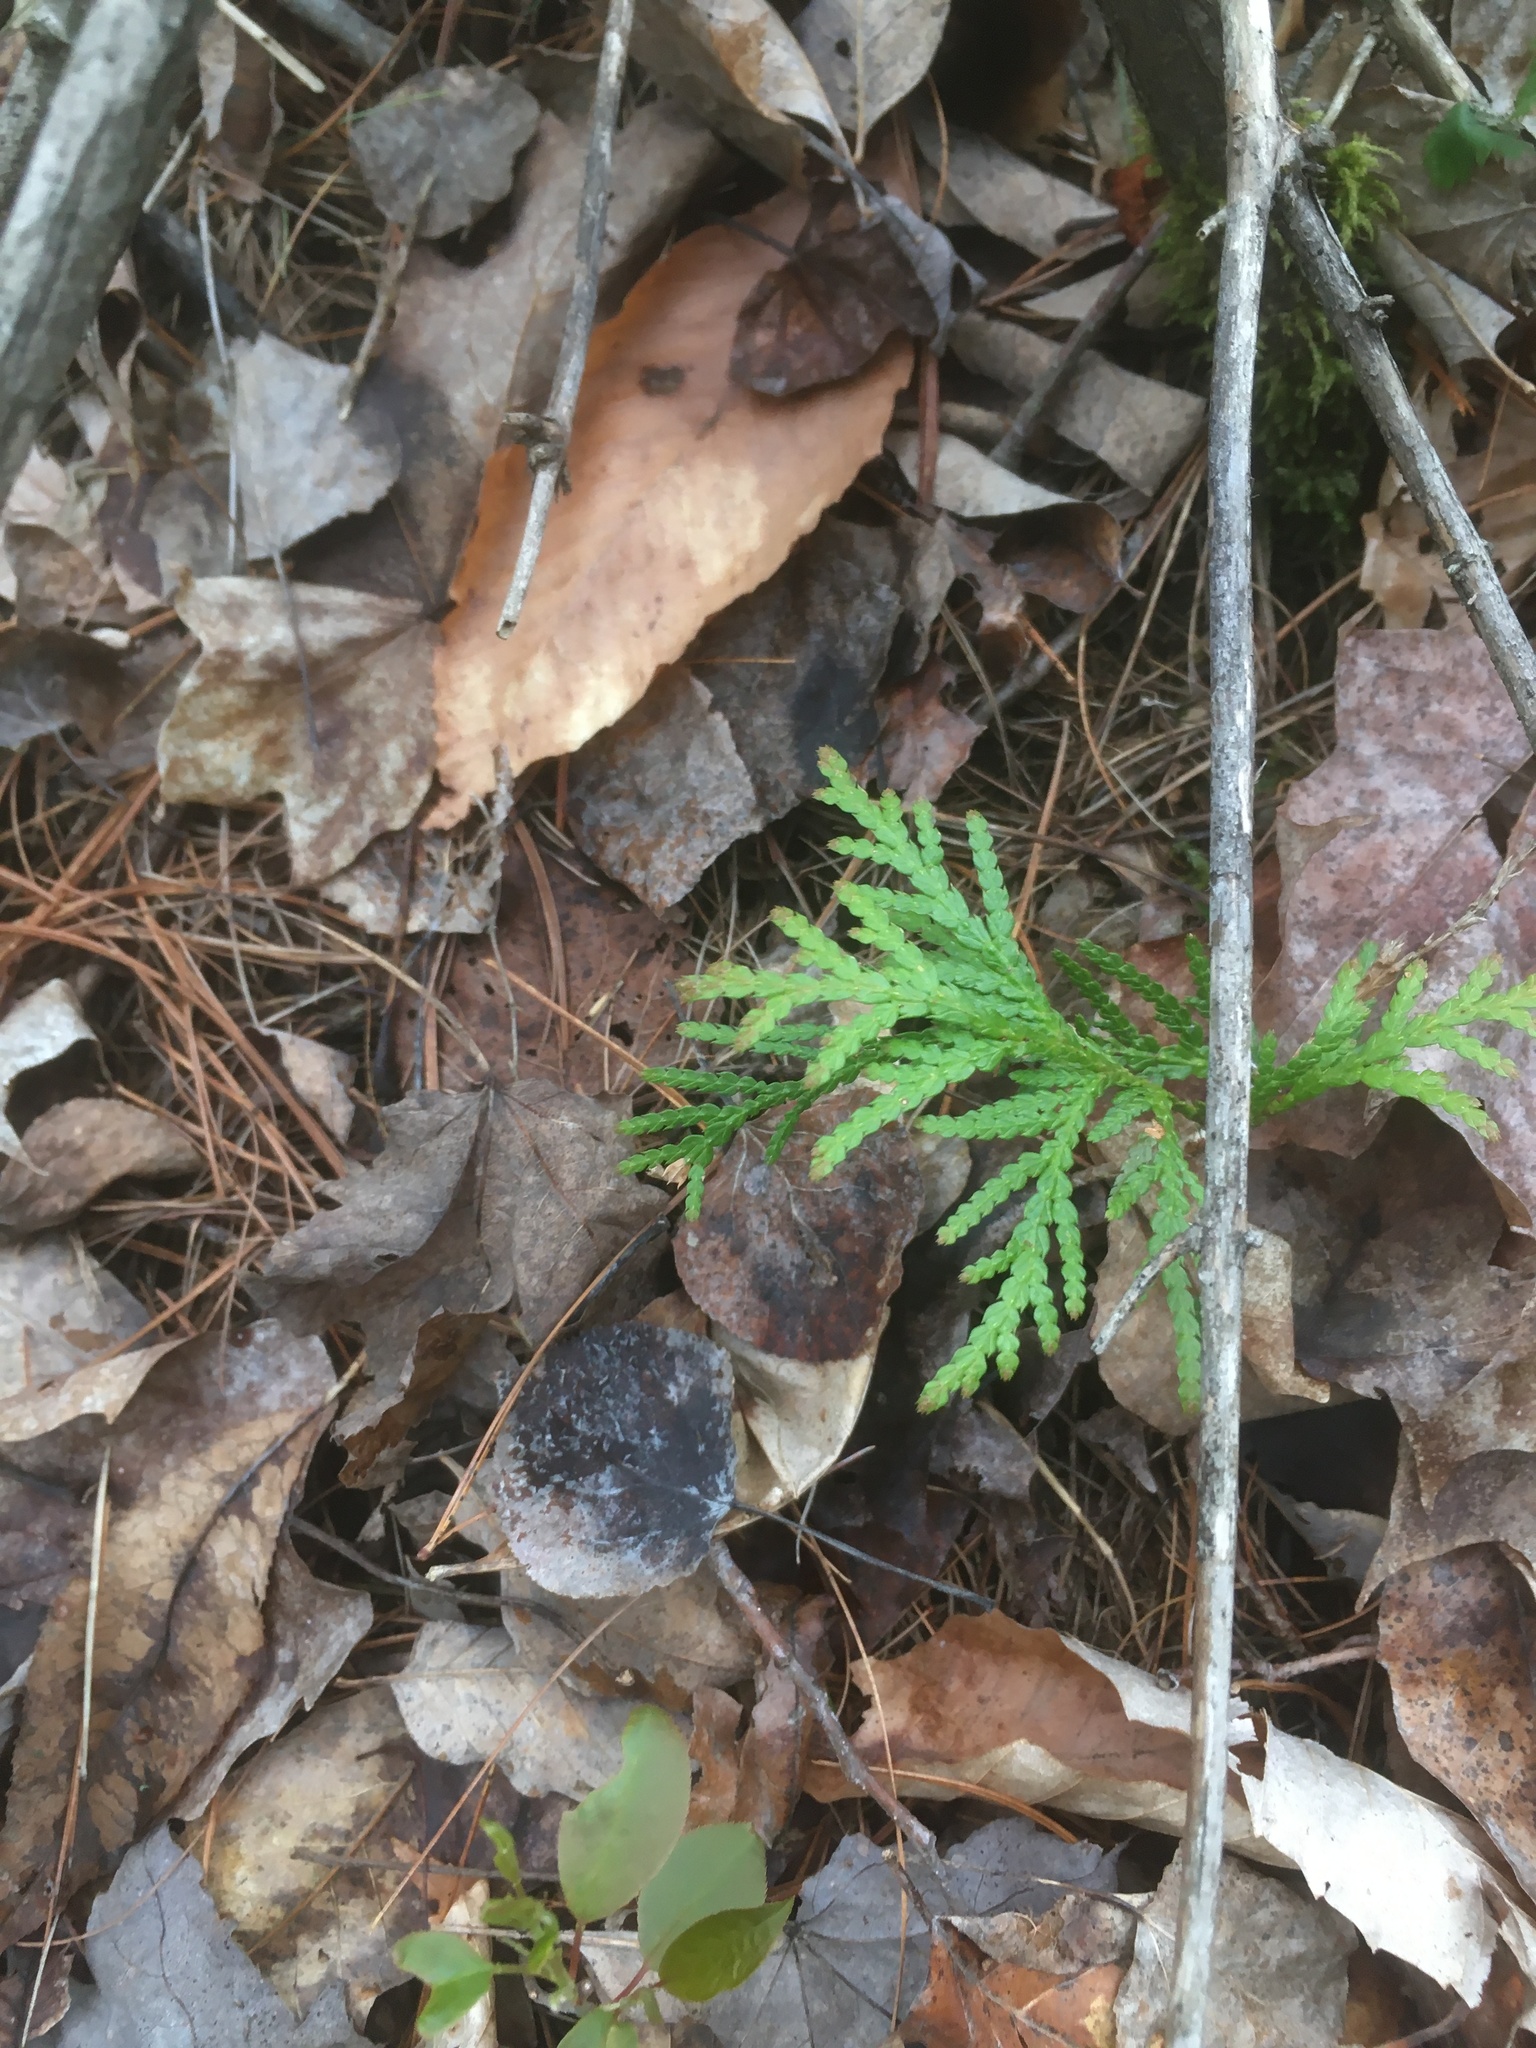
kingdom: Plantae
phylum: Tracheophyta
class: Pinopsida
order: Pinales
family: Cupressaceae
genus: Thuja
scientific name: Thuja occidentalis
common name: Northern white-cedar
